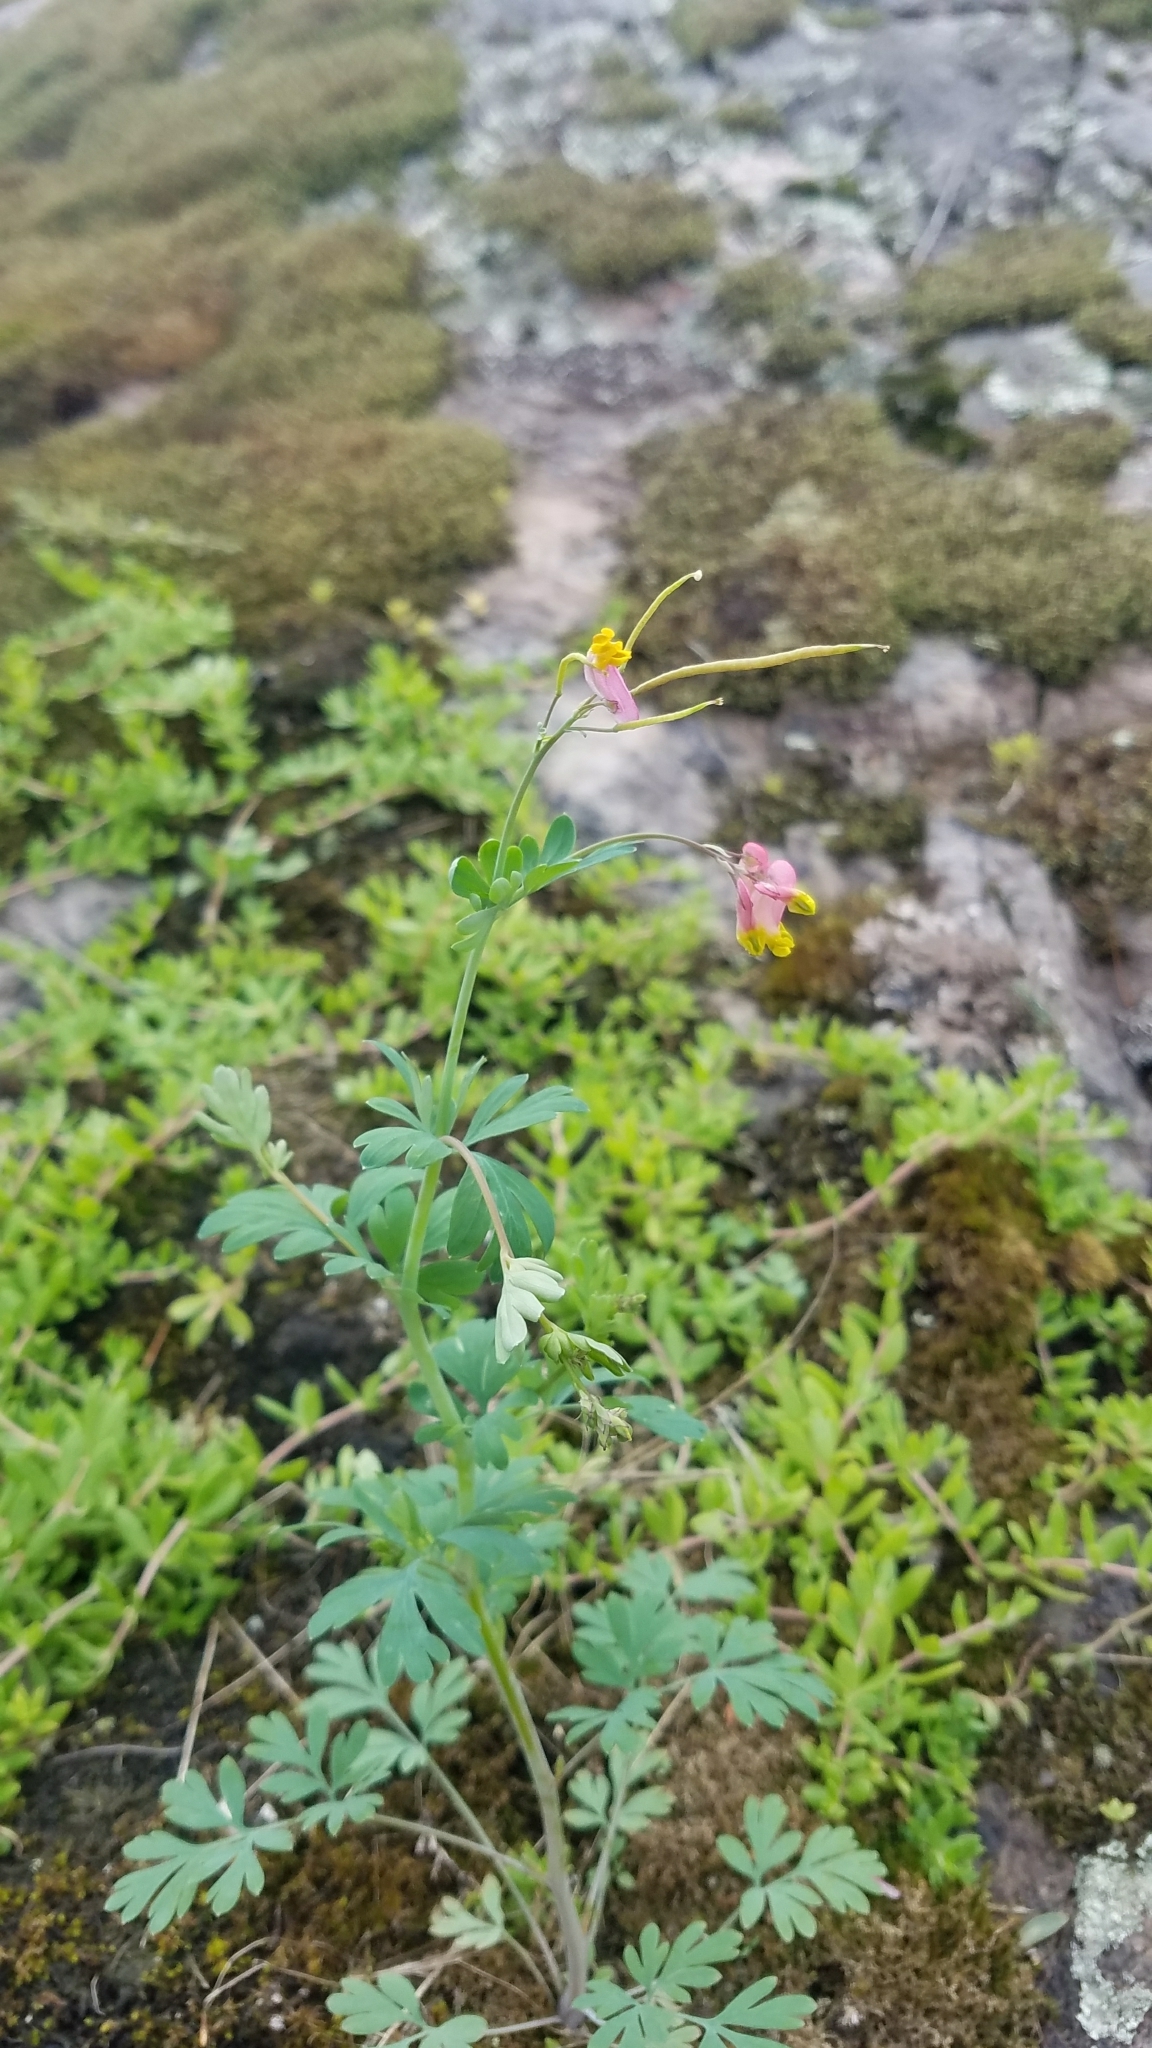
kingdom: Plantae
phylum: Tracheophyta
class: Magnoliopsida
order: Ranunculales
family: Papaveraceae
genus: Capnoides
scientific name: Capnoides sempervirens
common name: Rock harlequin
